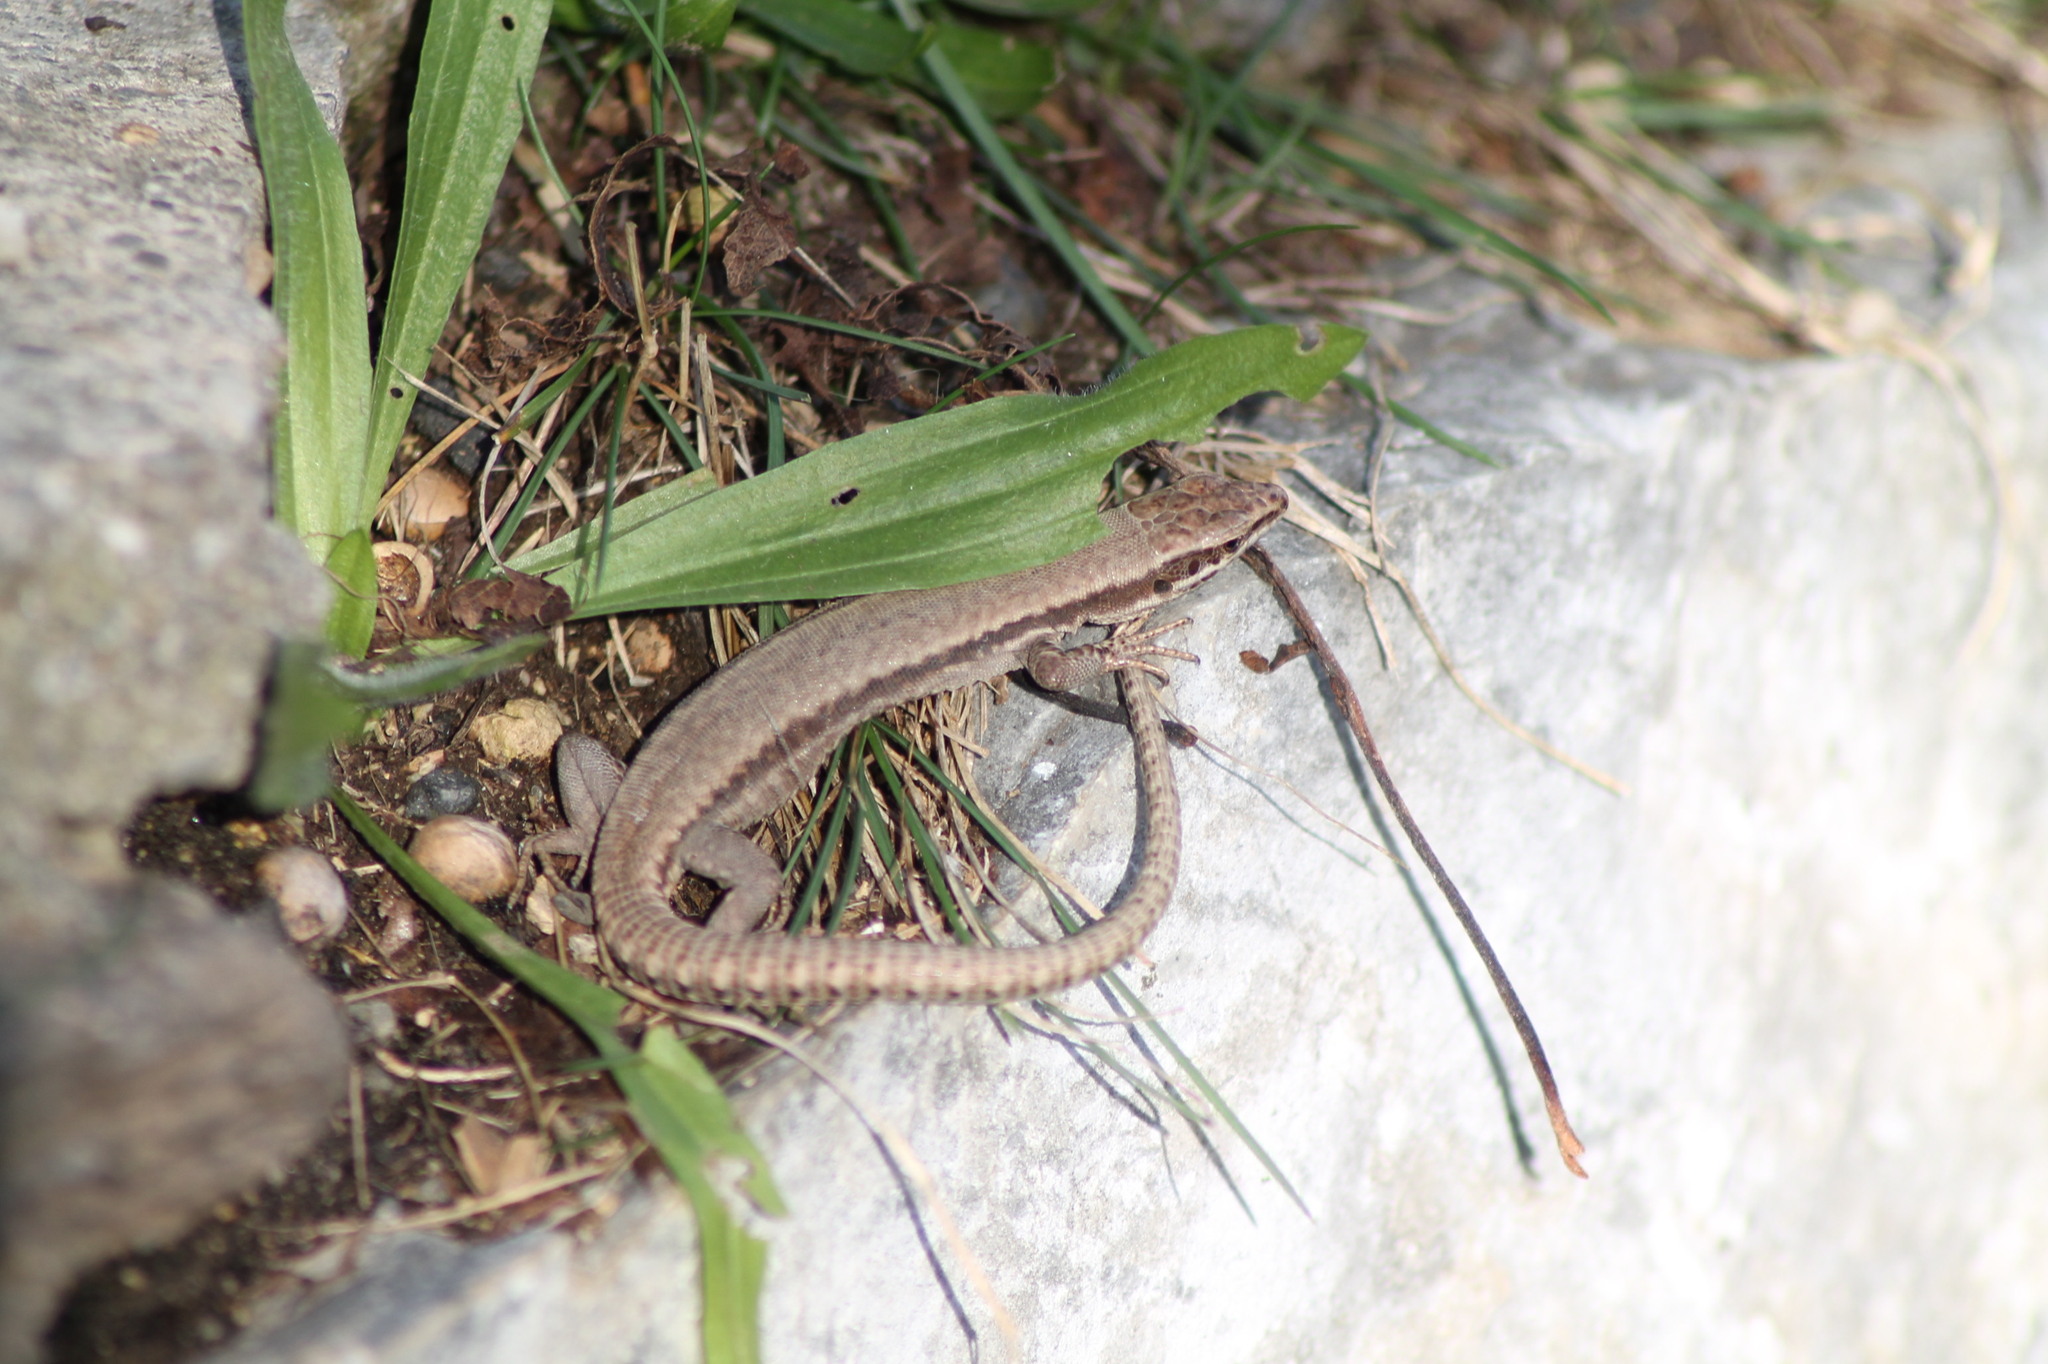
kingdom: Animalia
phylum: Chordata
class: Squamata
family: Lacertidae
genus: Podarcis
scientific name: Podarcis muralis
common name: Common wall lizard
